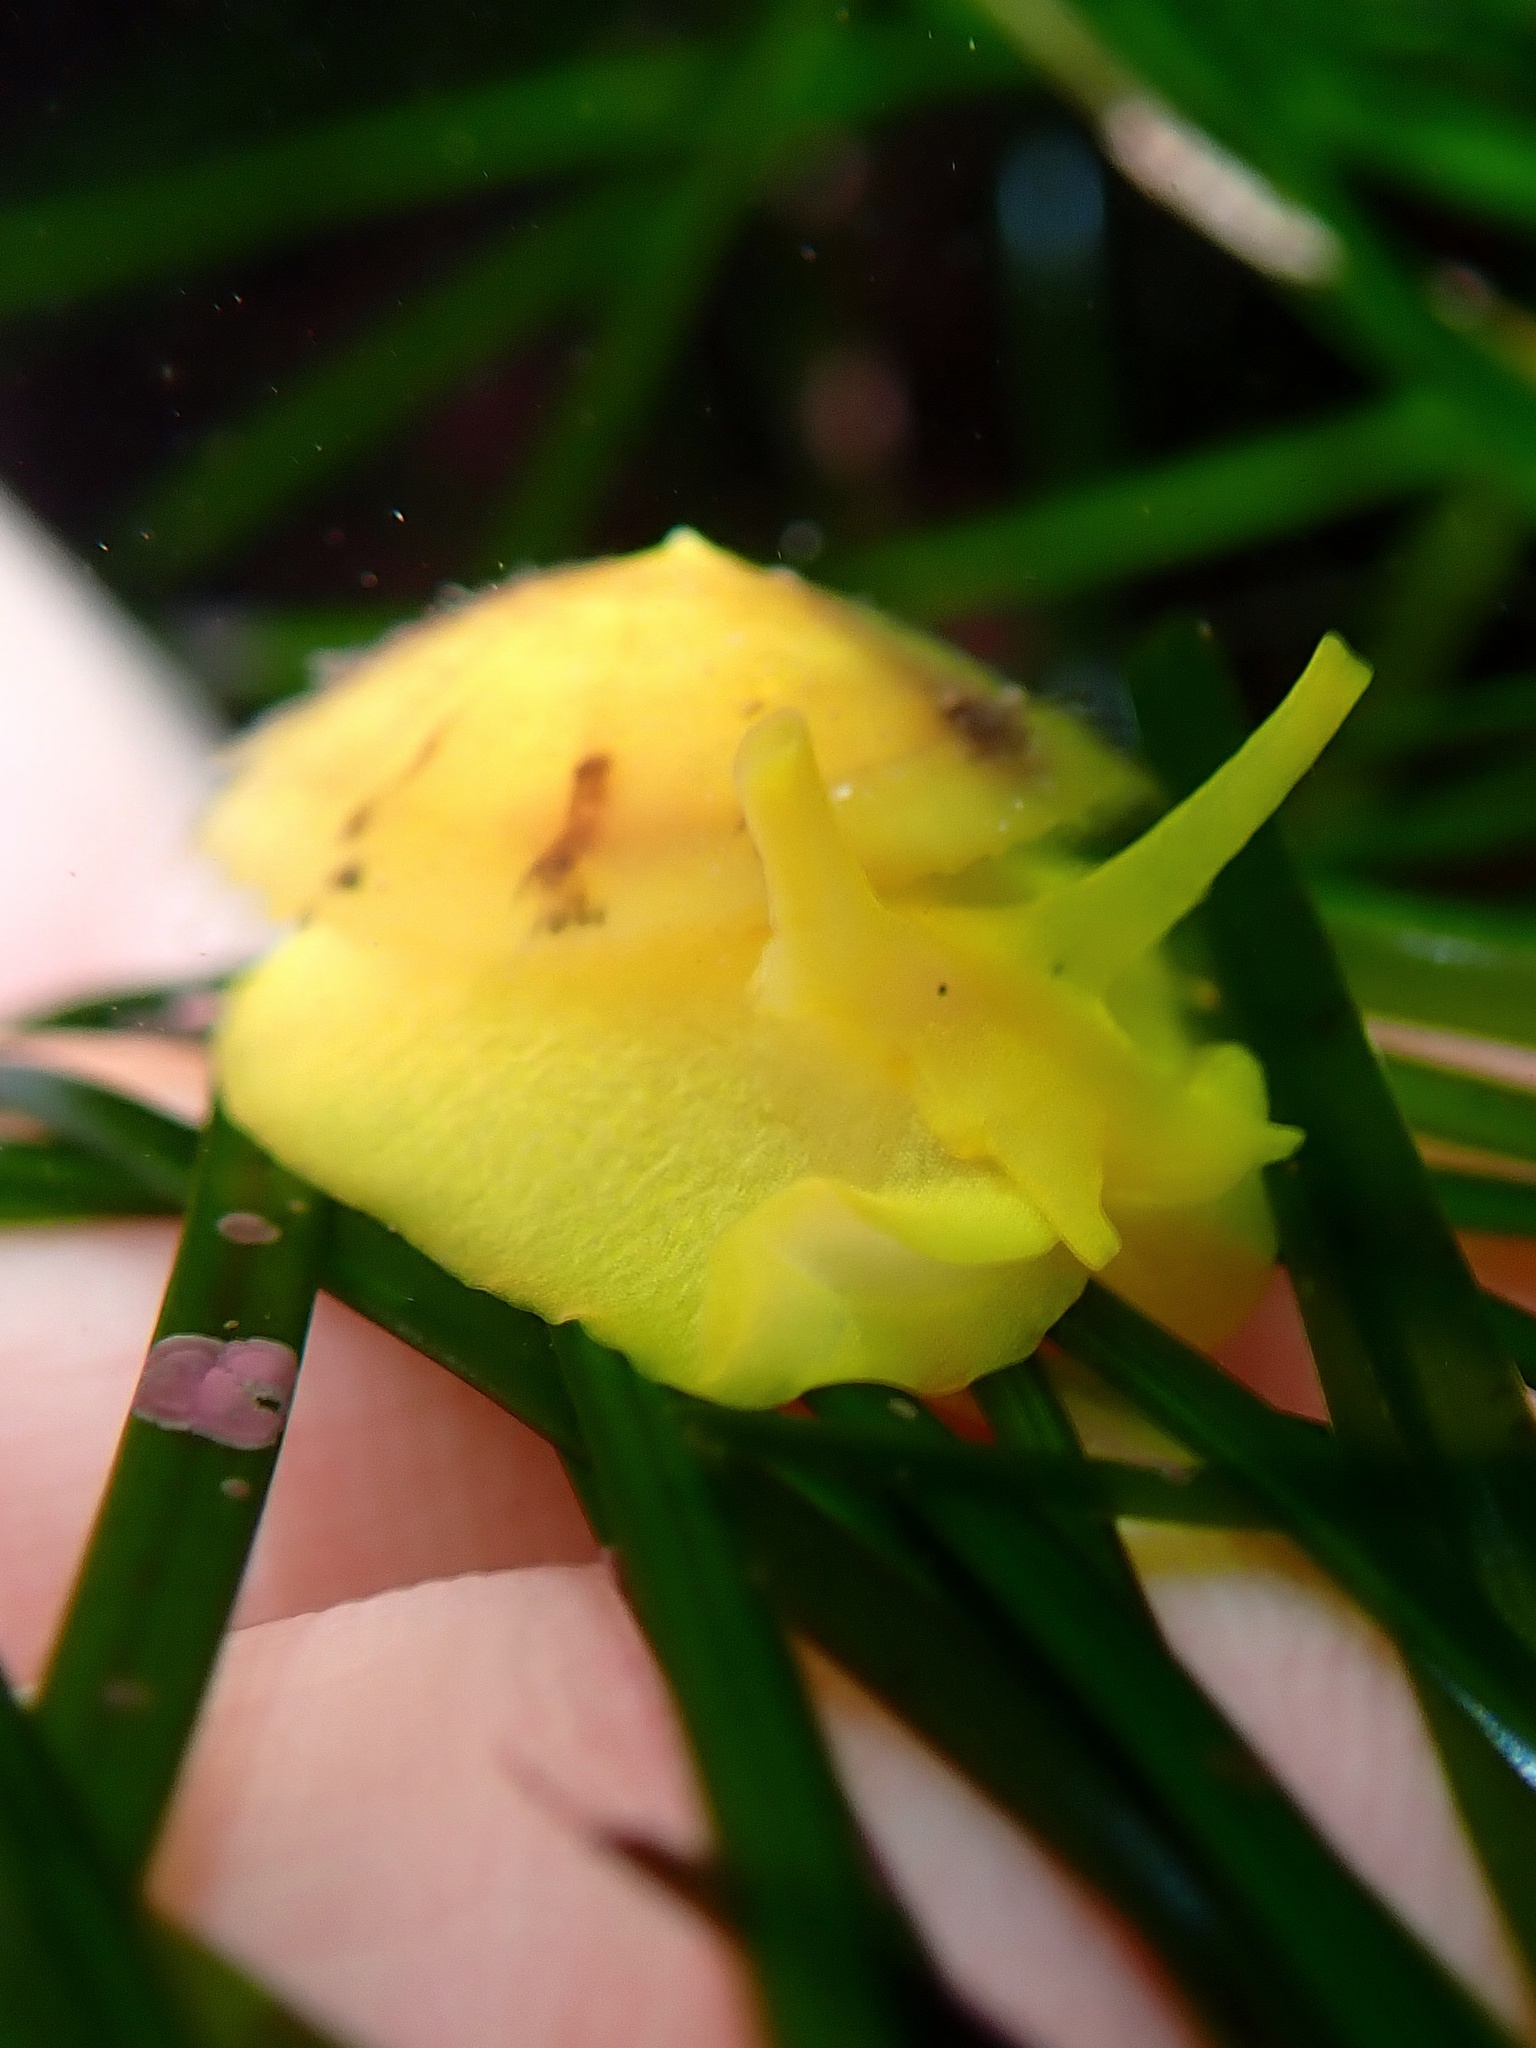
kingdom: Animalia
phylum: Mollusca
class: Gastropoda
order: Umbraculida
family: Tylodinidae
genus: Tylodina
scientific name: Tylodina fungina
